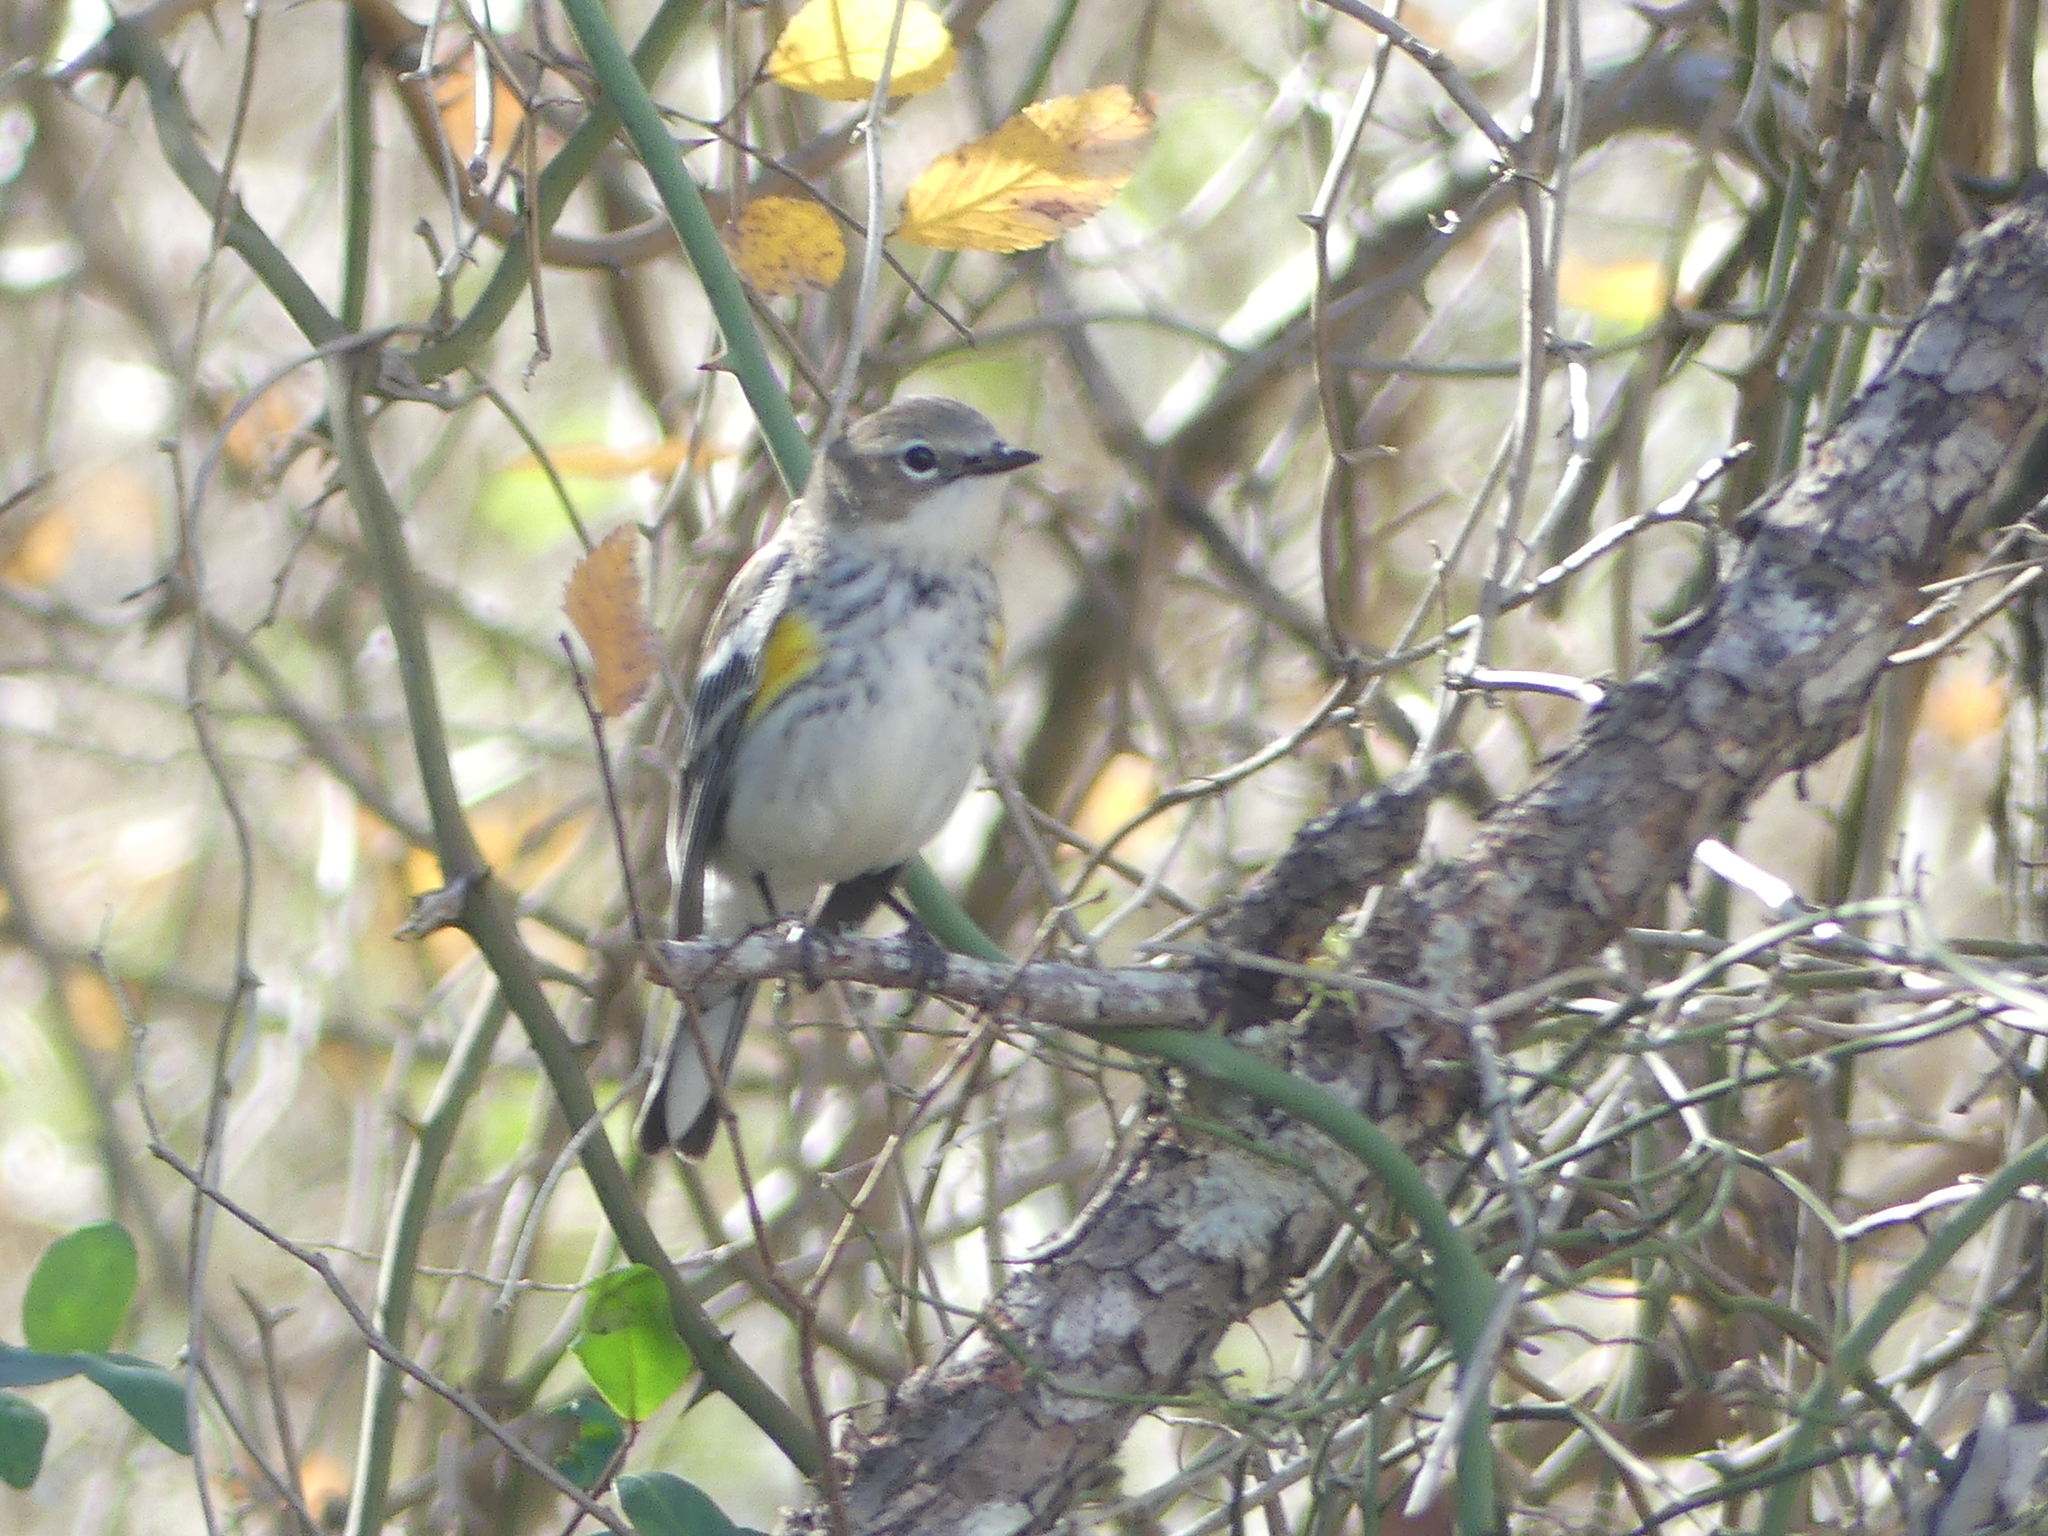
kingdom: Animalia
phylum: Chordata
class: Aves
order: Passeriformes
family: Parulidae
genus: Setophaga
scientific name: Setophaga coronata
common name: Myrtle warbler
